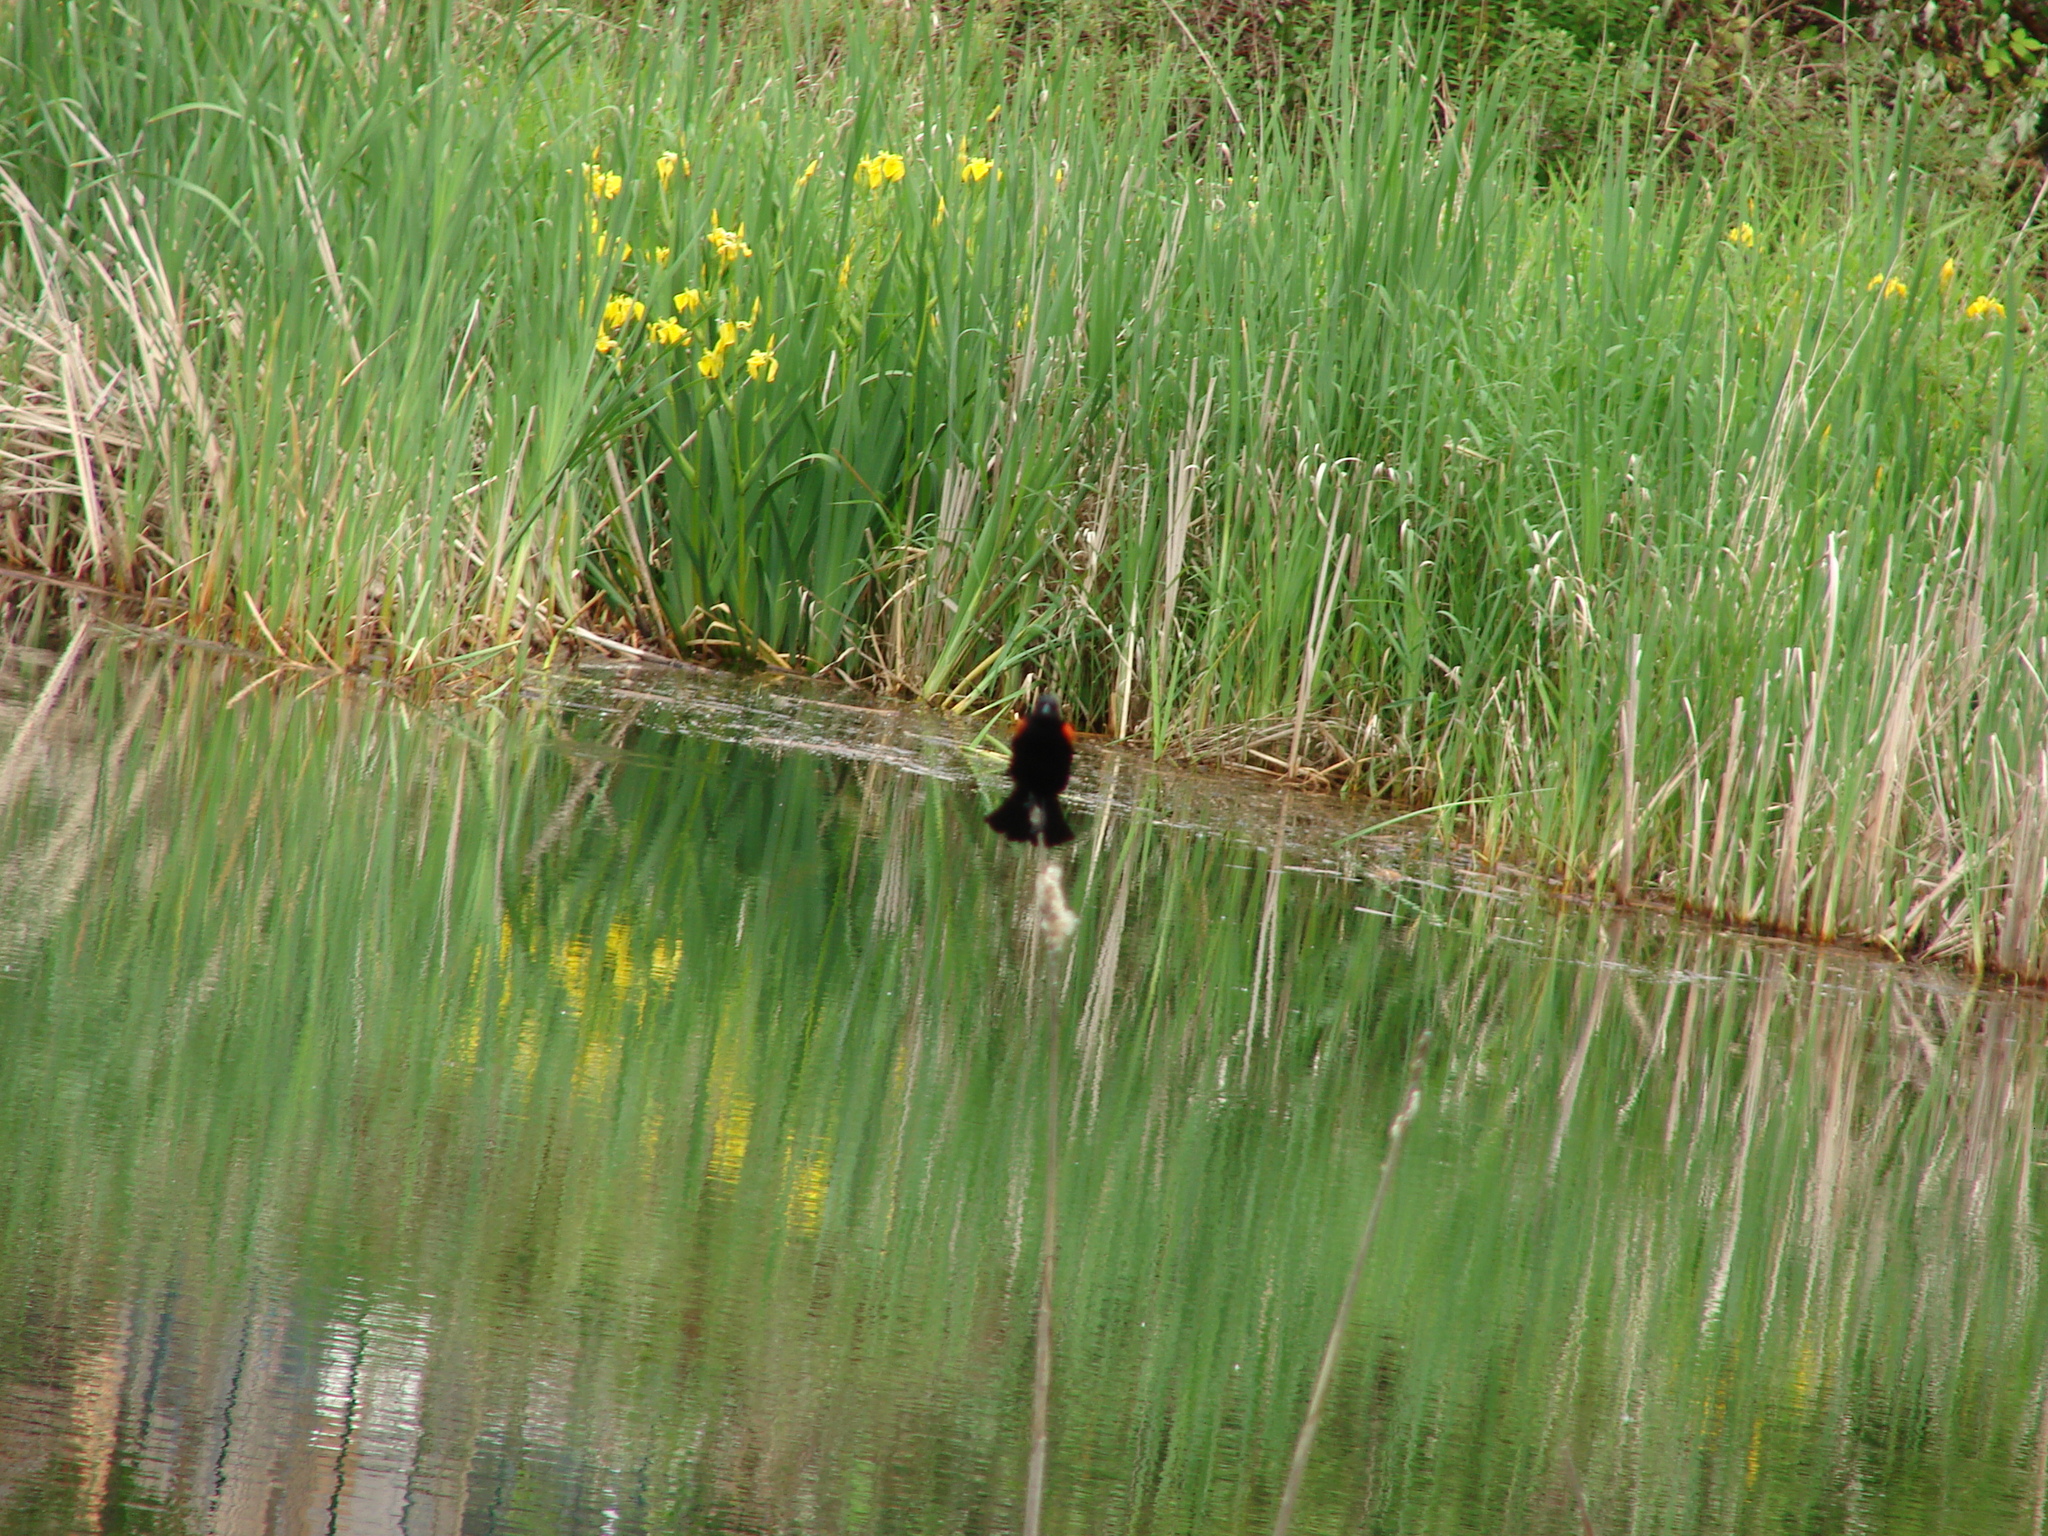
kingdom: Plantae
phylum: Tracheophyta
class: Liliopsida
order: Asparagales
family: Iridaceae
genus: Iris
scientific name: Iris pseudacorus
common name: Yellow flag
